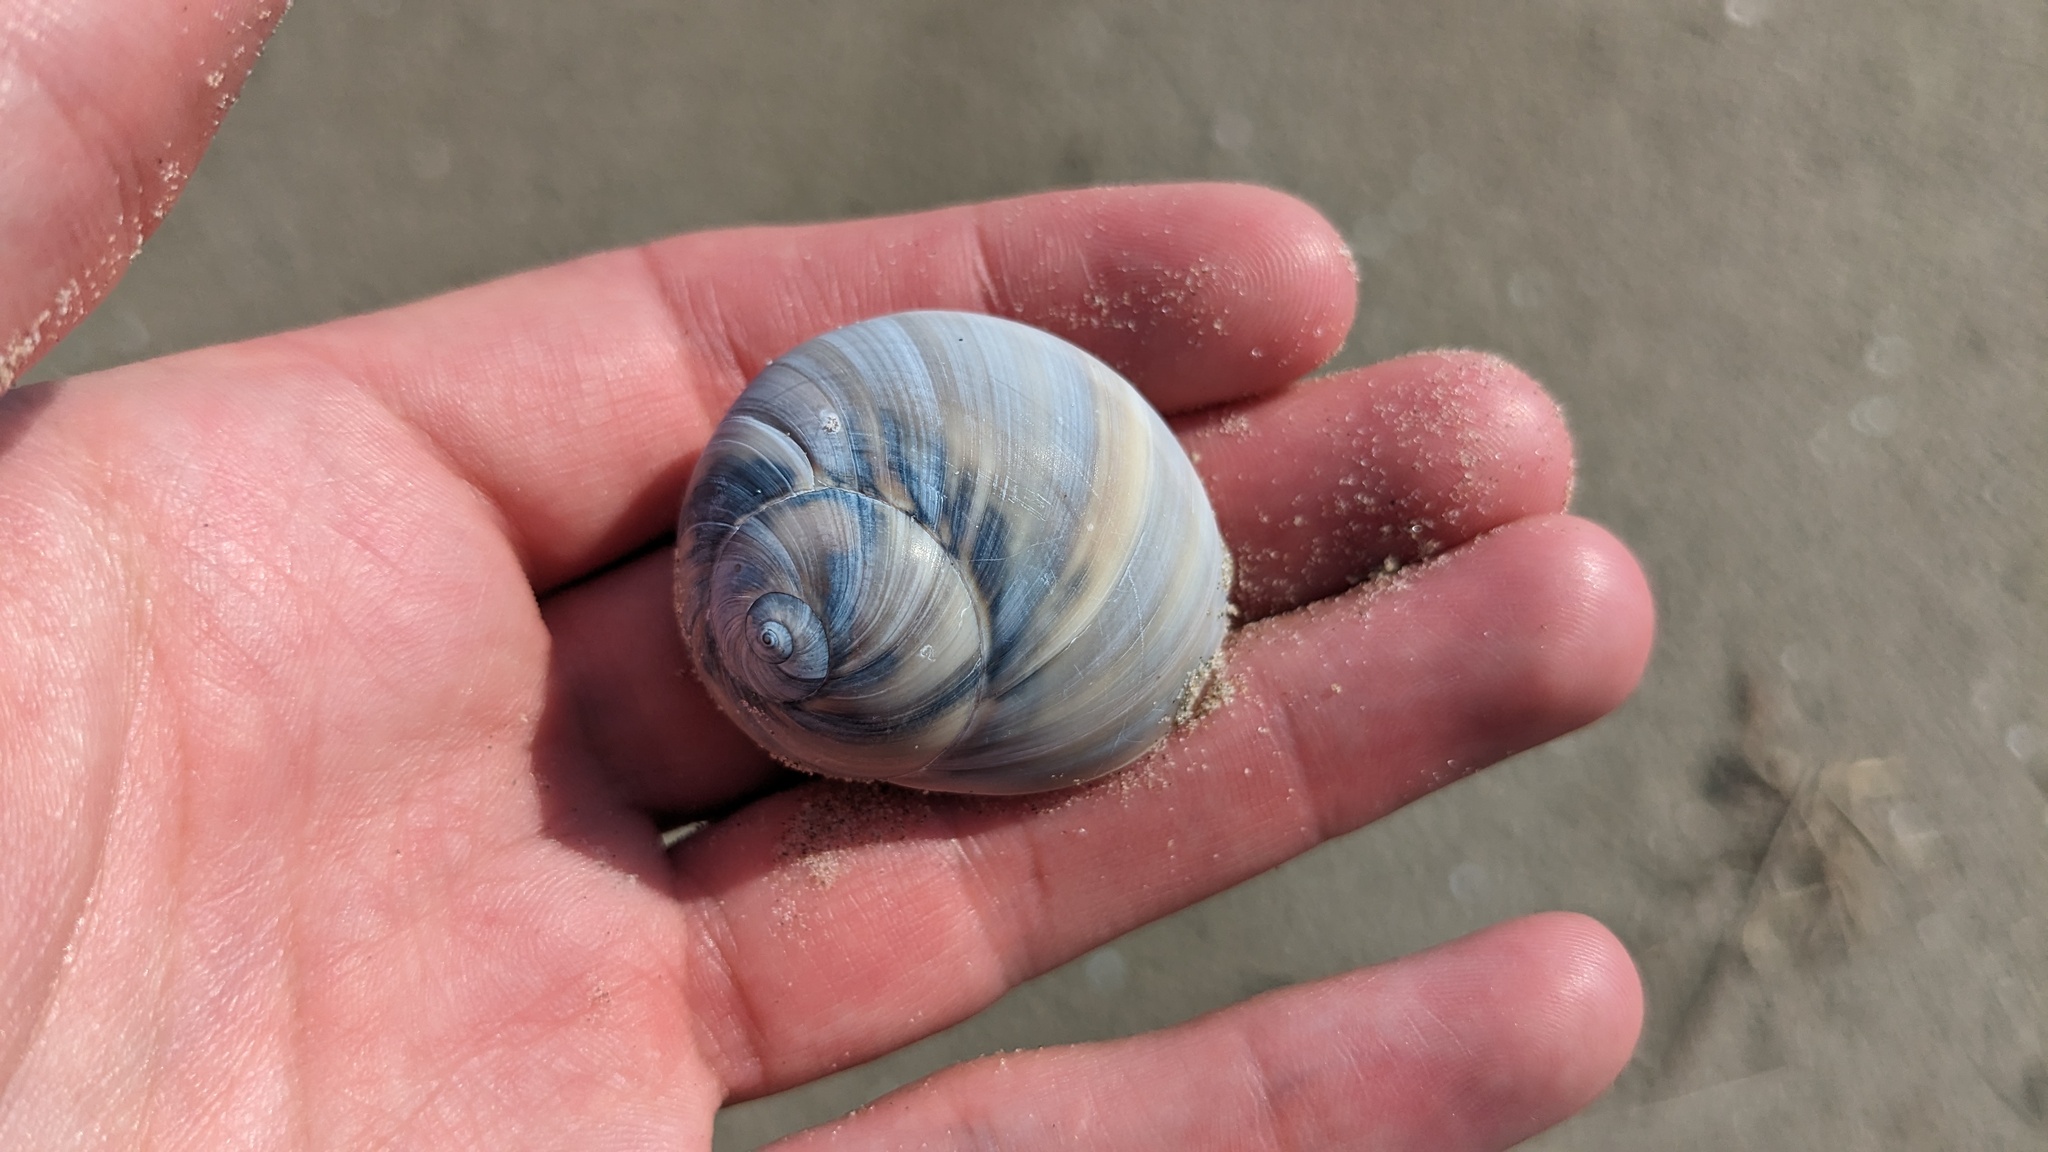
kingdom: Animalia
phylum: Mollusca
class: Gastropoda
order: Littorinimorpha
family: Naticidae
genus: Neverita
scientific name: Neverita delessertiana
